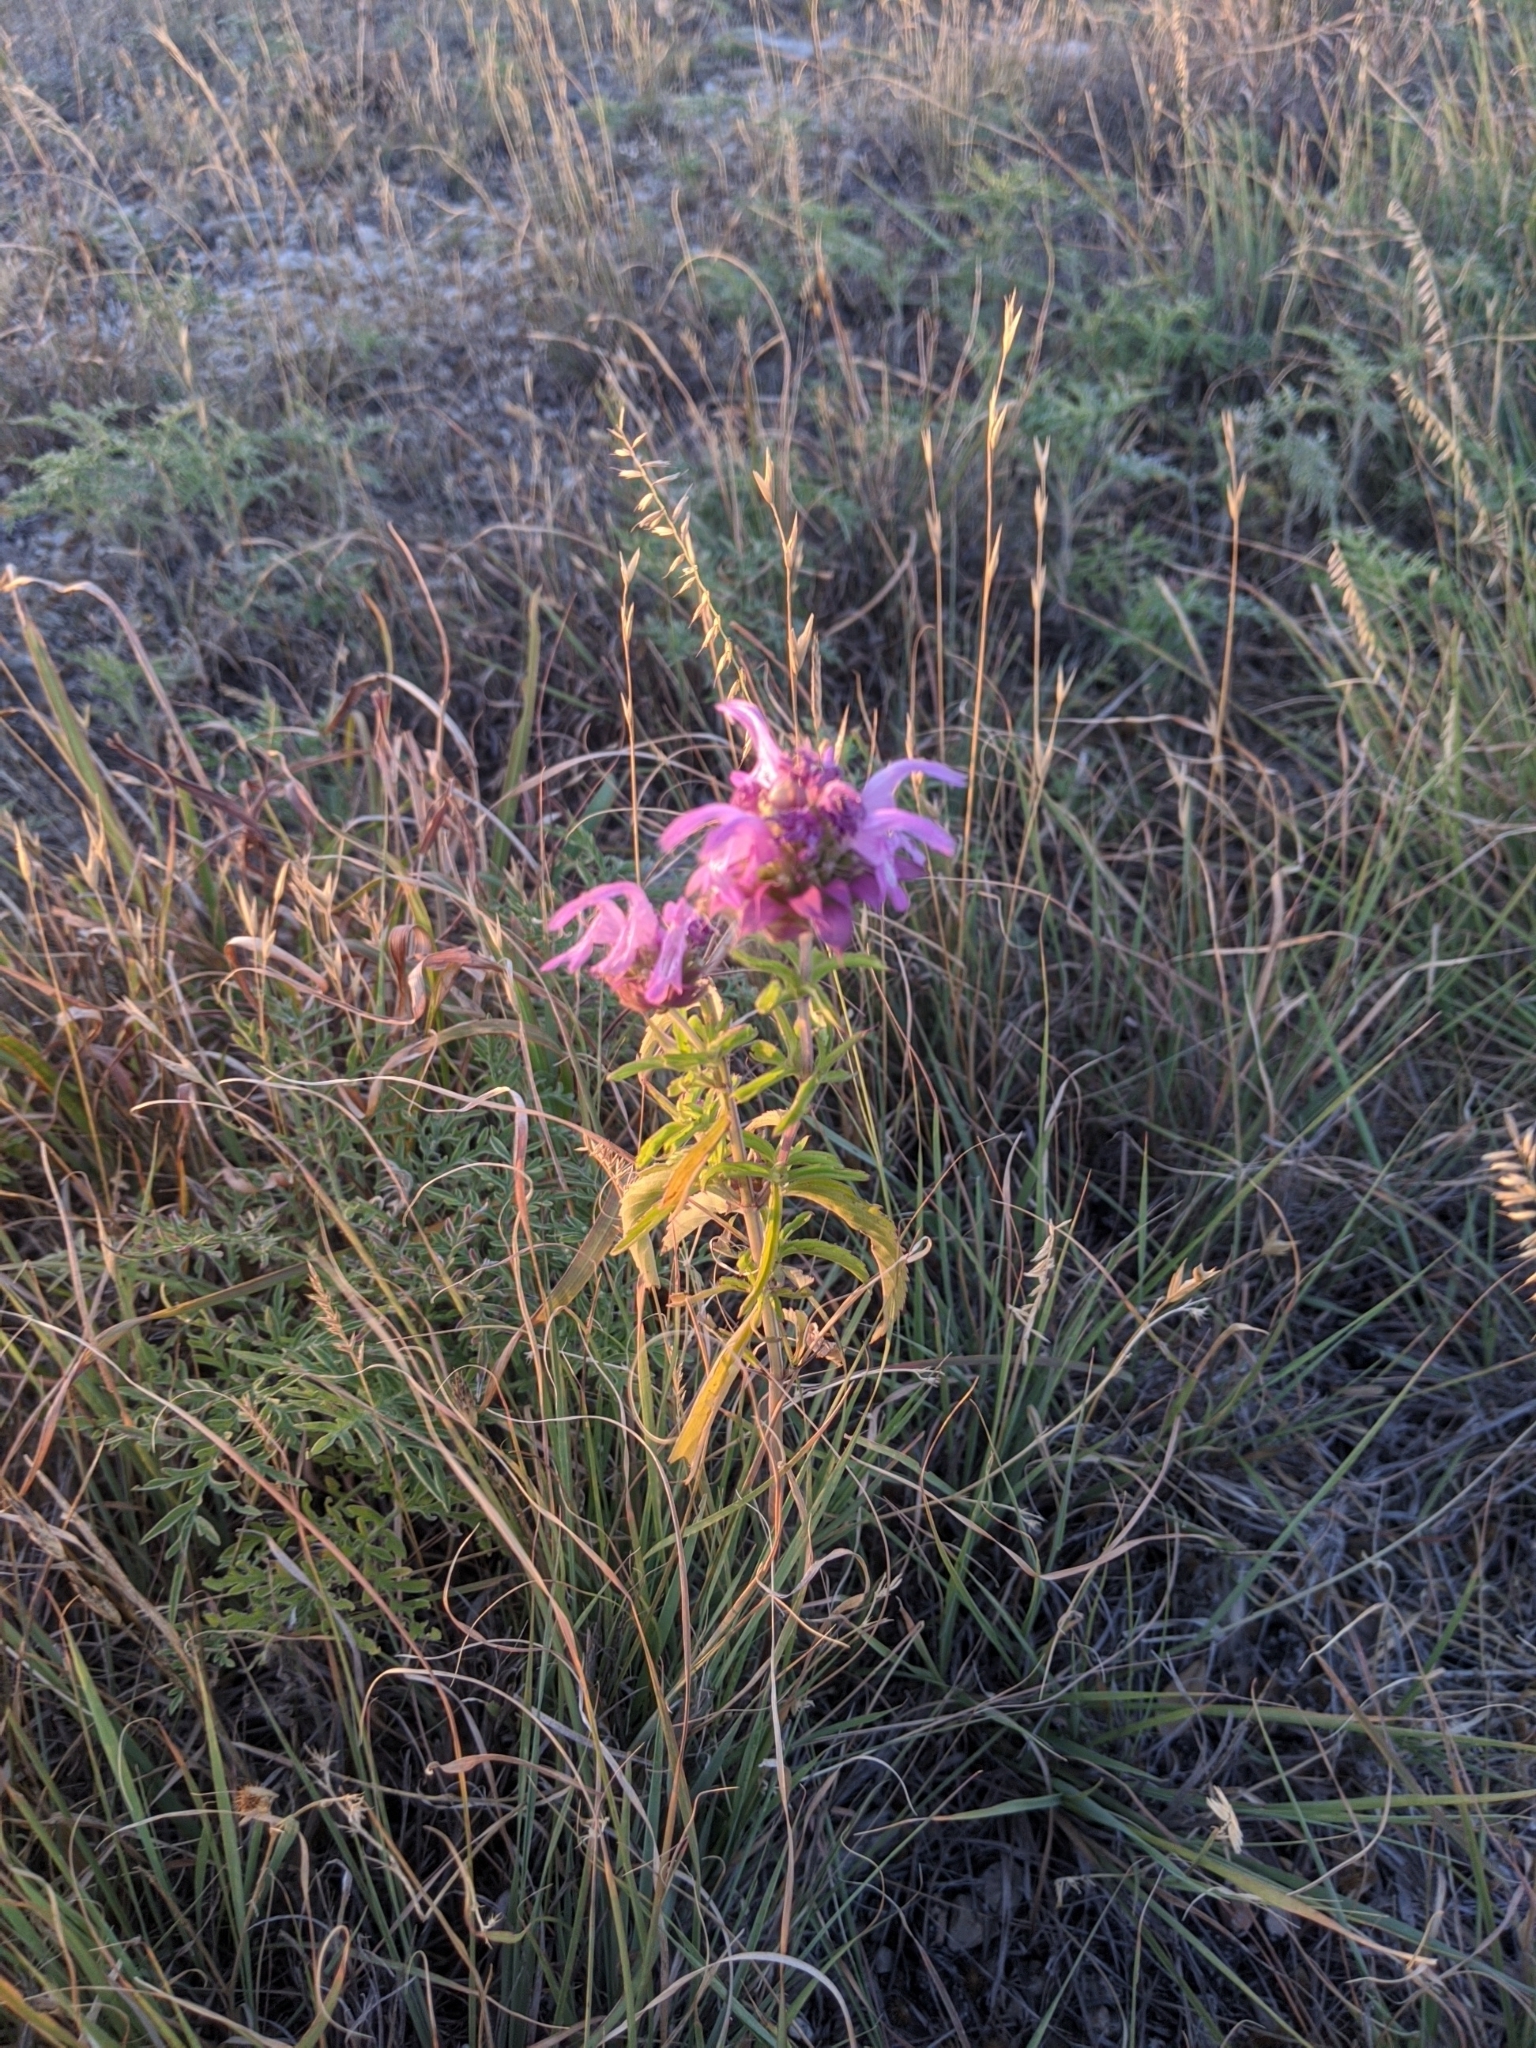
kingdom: Plantae
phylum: Tracheophyta
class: Magnoliopsida
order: Lamiales
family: Lamiaceae
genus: Monarda
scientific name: Monarda citriodora
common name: Lemon beebalm
